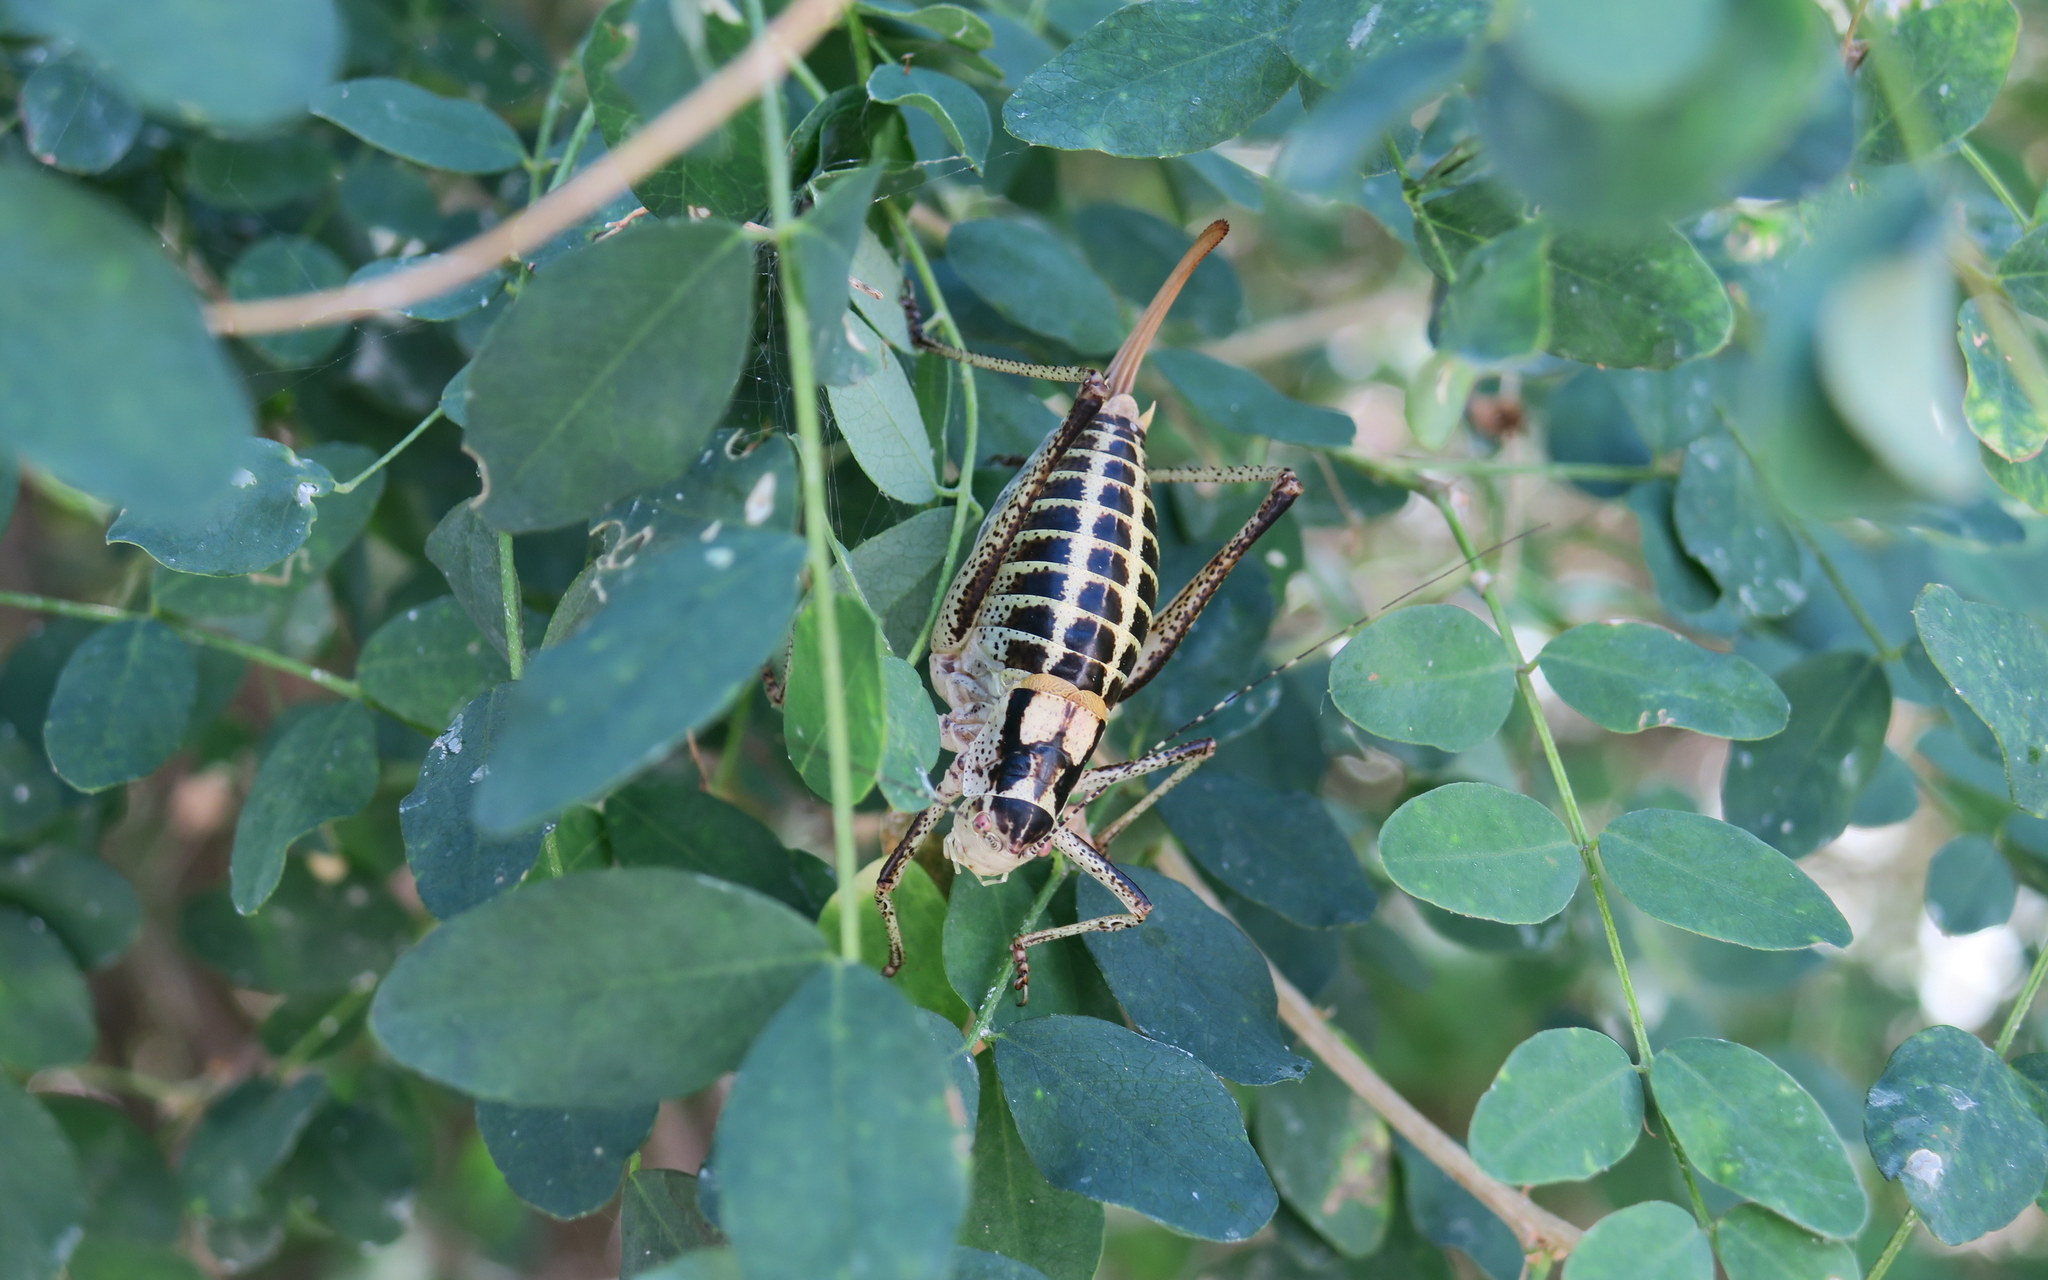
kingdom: Animalia
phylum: Arthropoda
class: Insecta
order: Orthoptera
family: Tettigoniidae
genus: Poecilimon
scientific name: Poecilimon ornatus
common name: Ornate bright bush-cricket
